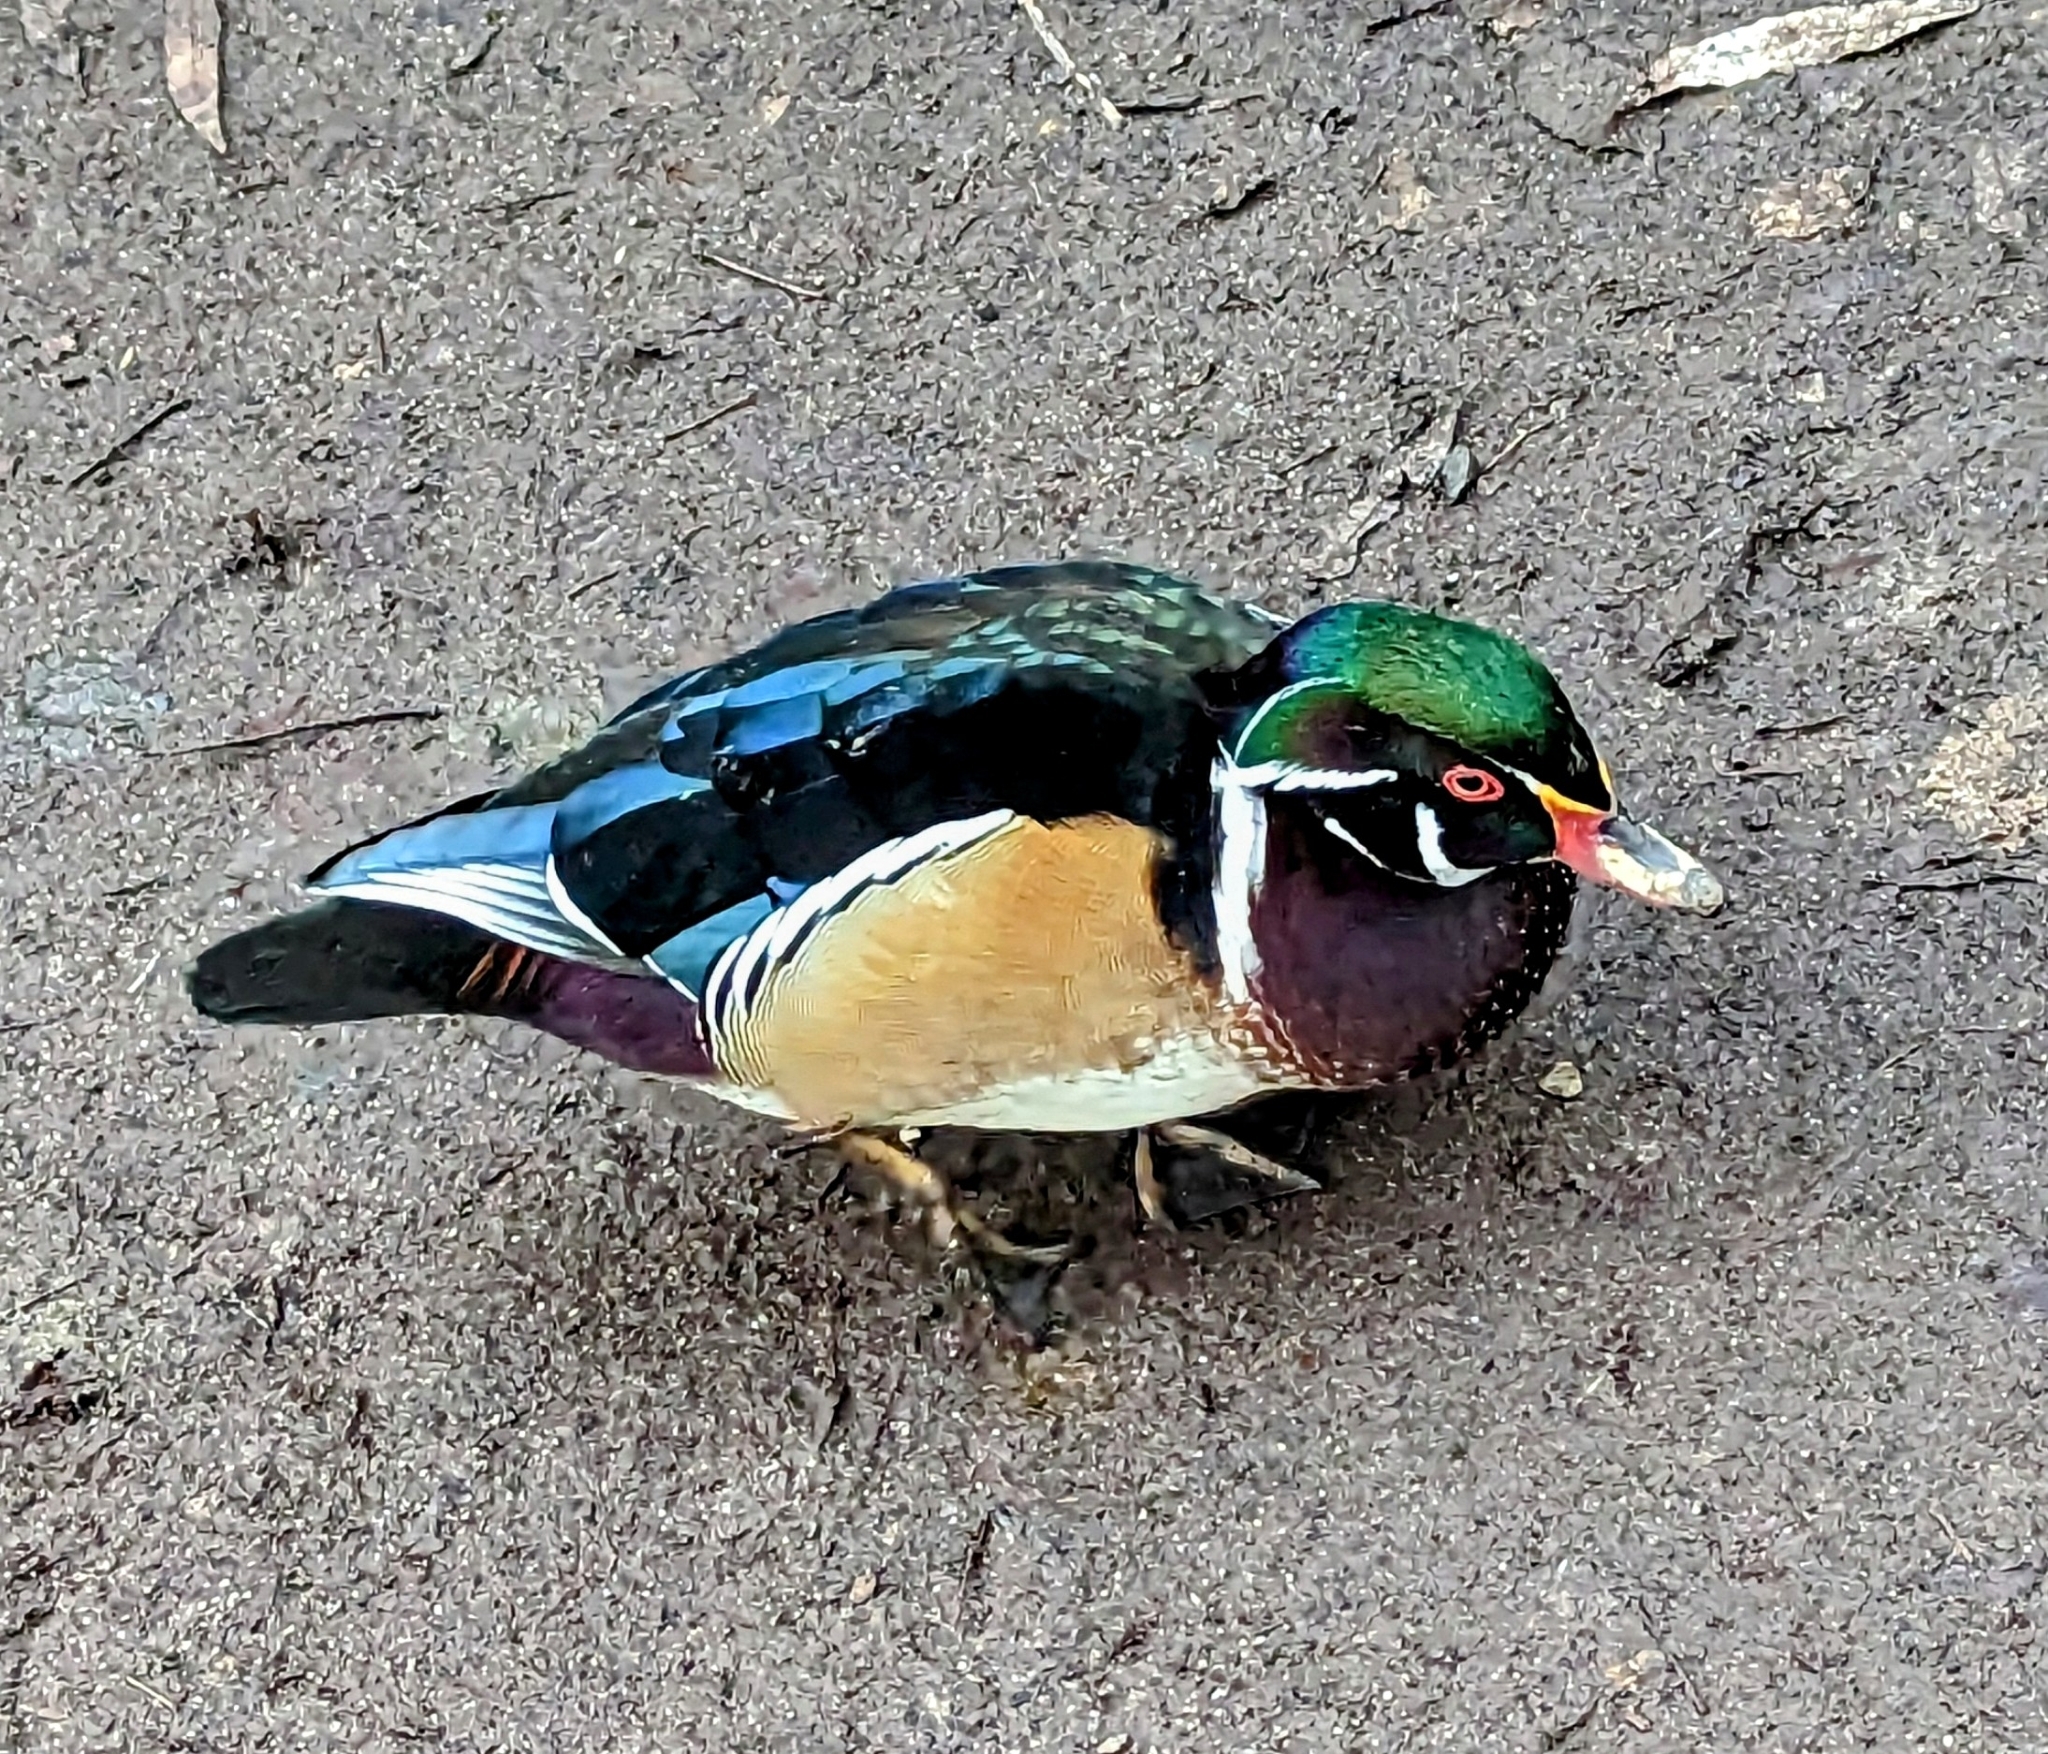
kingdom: Animalia
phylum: Chordata
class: Aves
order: Anseriformes
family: Anatidae
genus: Aix
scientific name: Aix sponsa
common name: Wood duck
